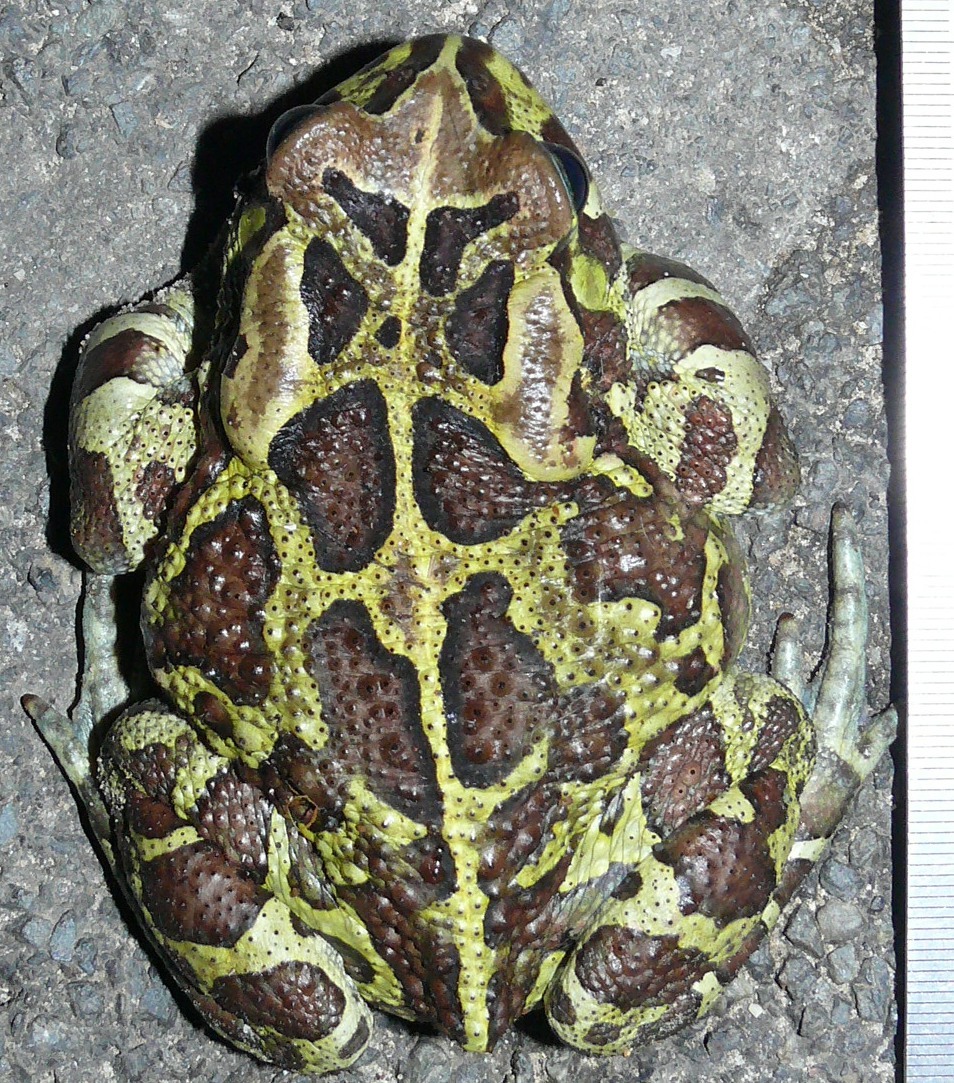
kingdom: Animalia
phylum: Chordata
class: Amphibia
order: Anura
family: Bufonidae
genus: Sclerophrys
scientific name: Sclerophrys pantherina
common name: Panther toad
